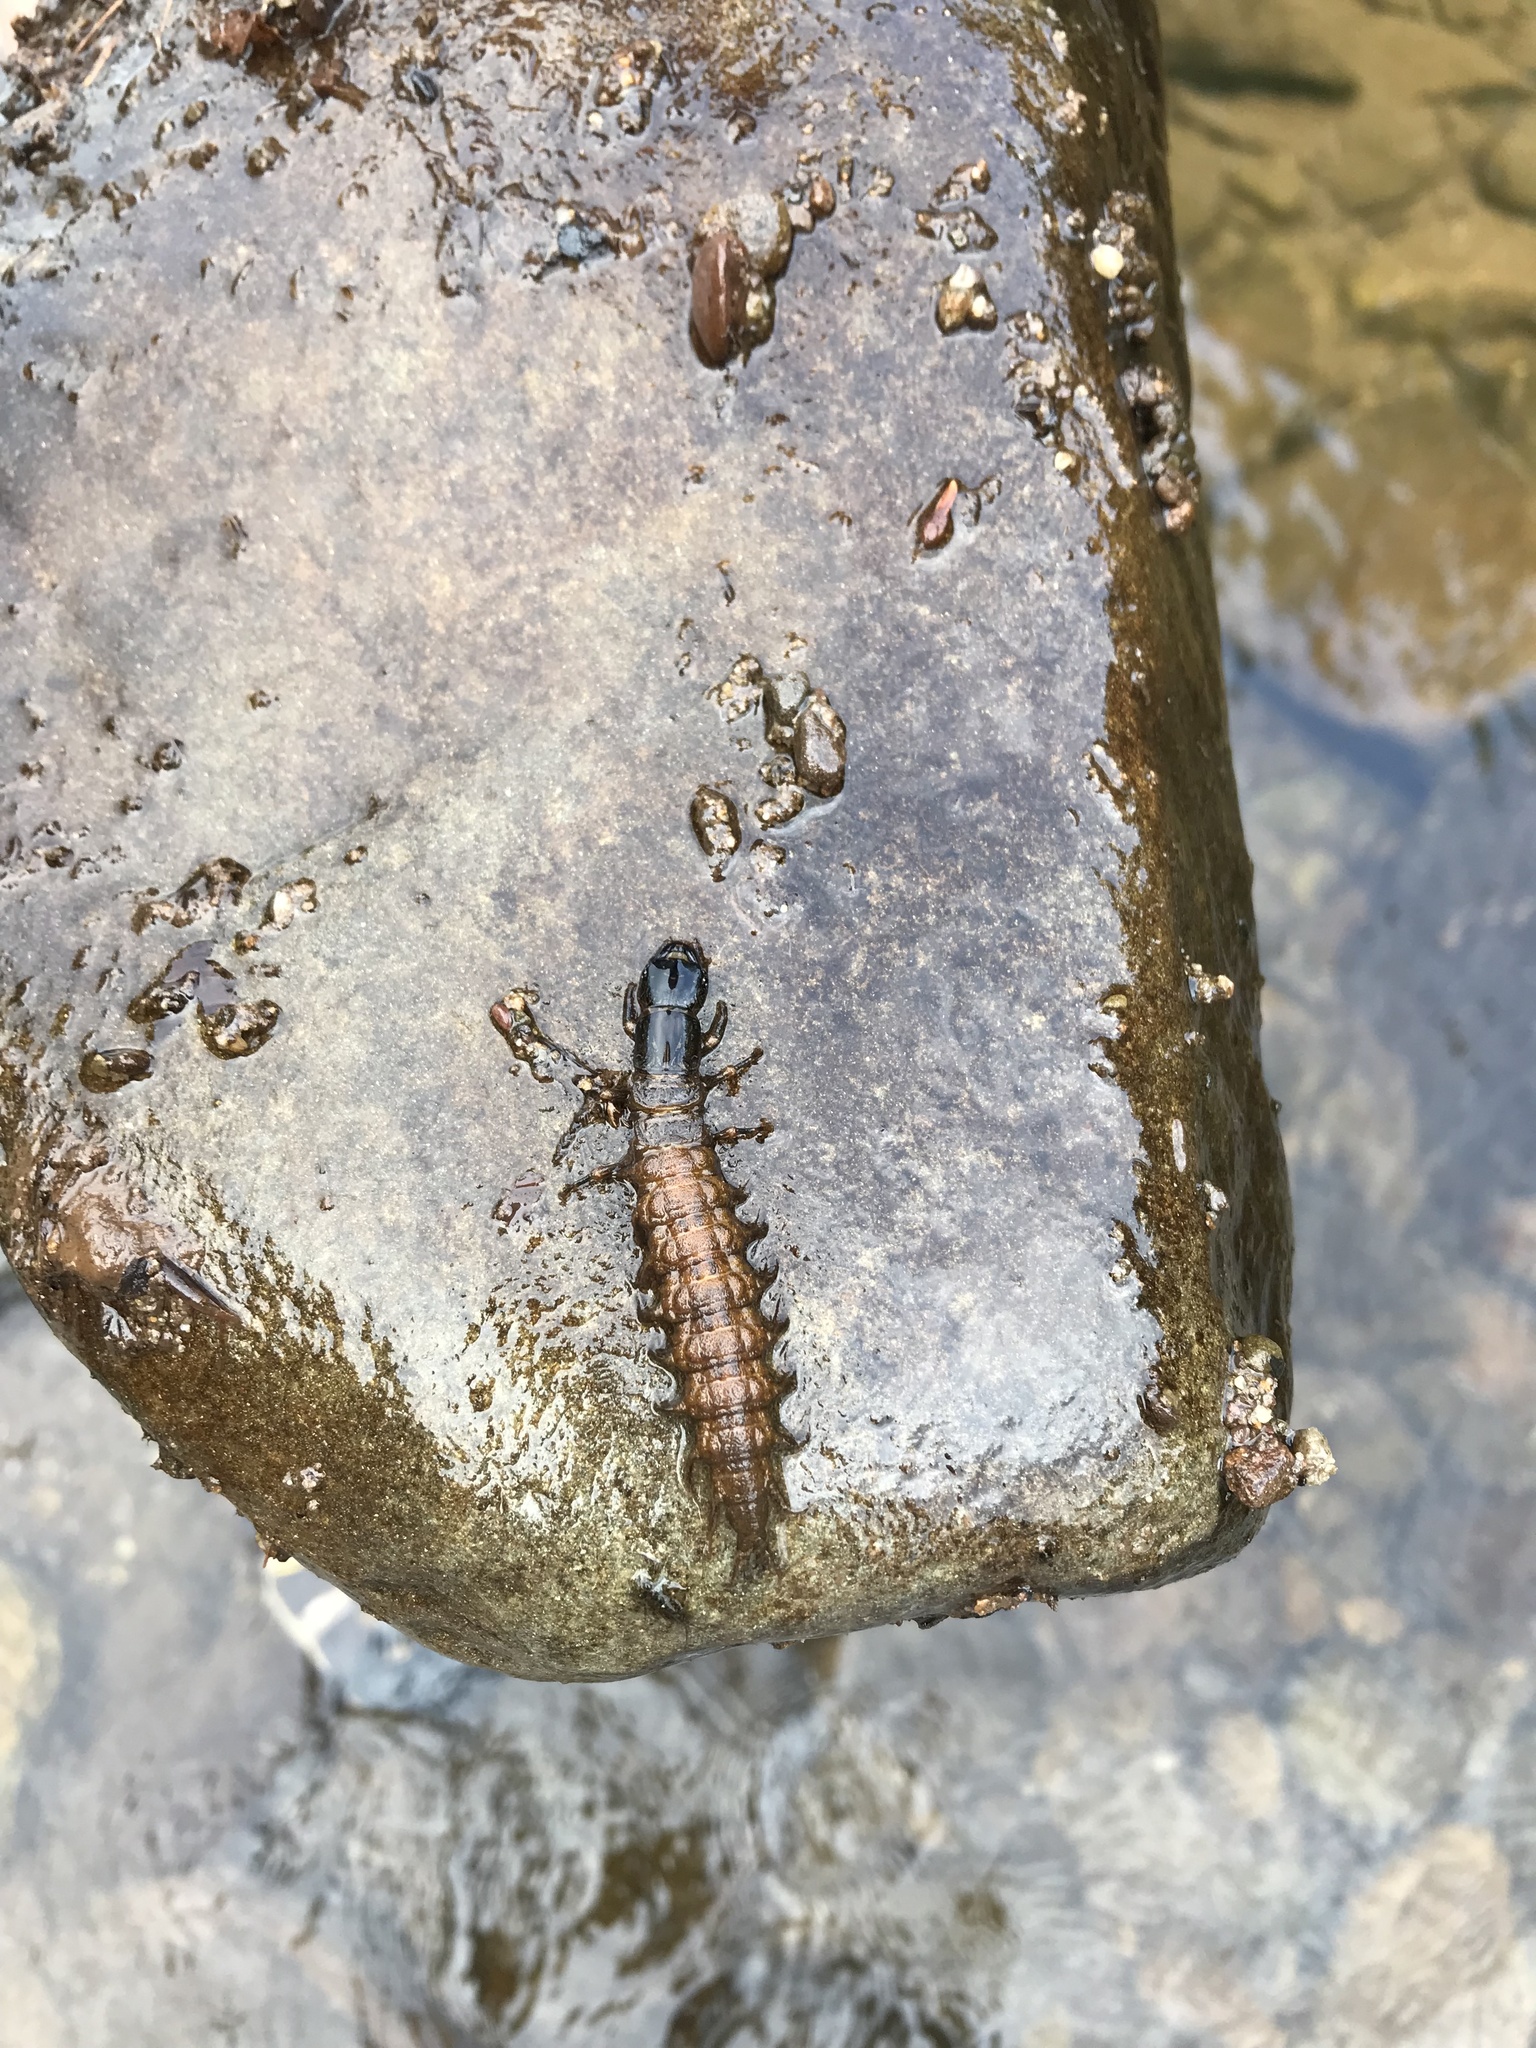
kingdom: Animalia
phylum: Arthropoda
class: Insecta
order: Megaloptera
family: Corydalidae
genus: Corydalus
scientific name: Corydalus cornutus
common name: Dobsonfly
